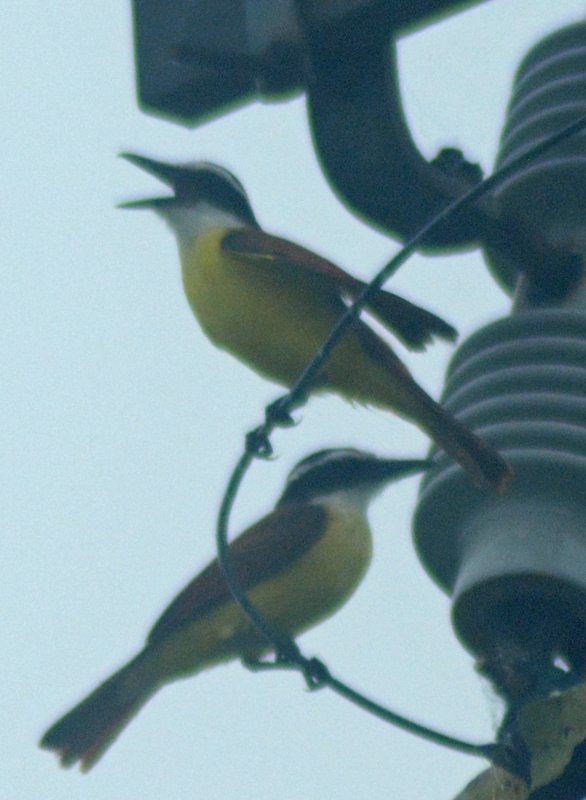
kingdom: Animalia
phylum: Chordata
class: Aves
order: Passeriformes
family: Tyrannidae
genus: Pitangus
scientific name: Pitangus sulphuratus
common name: Great kiskadee
